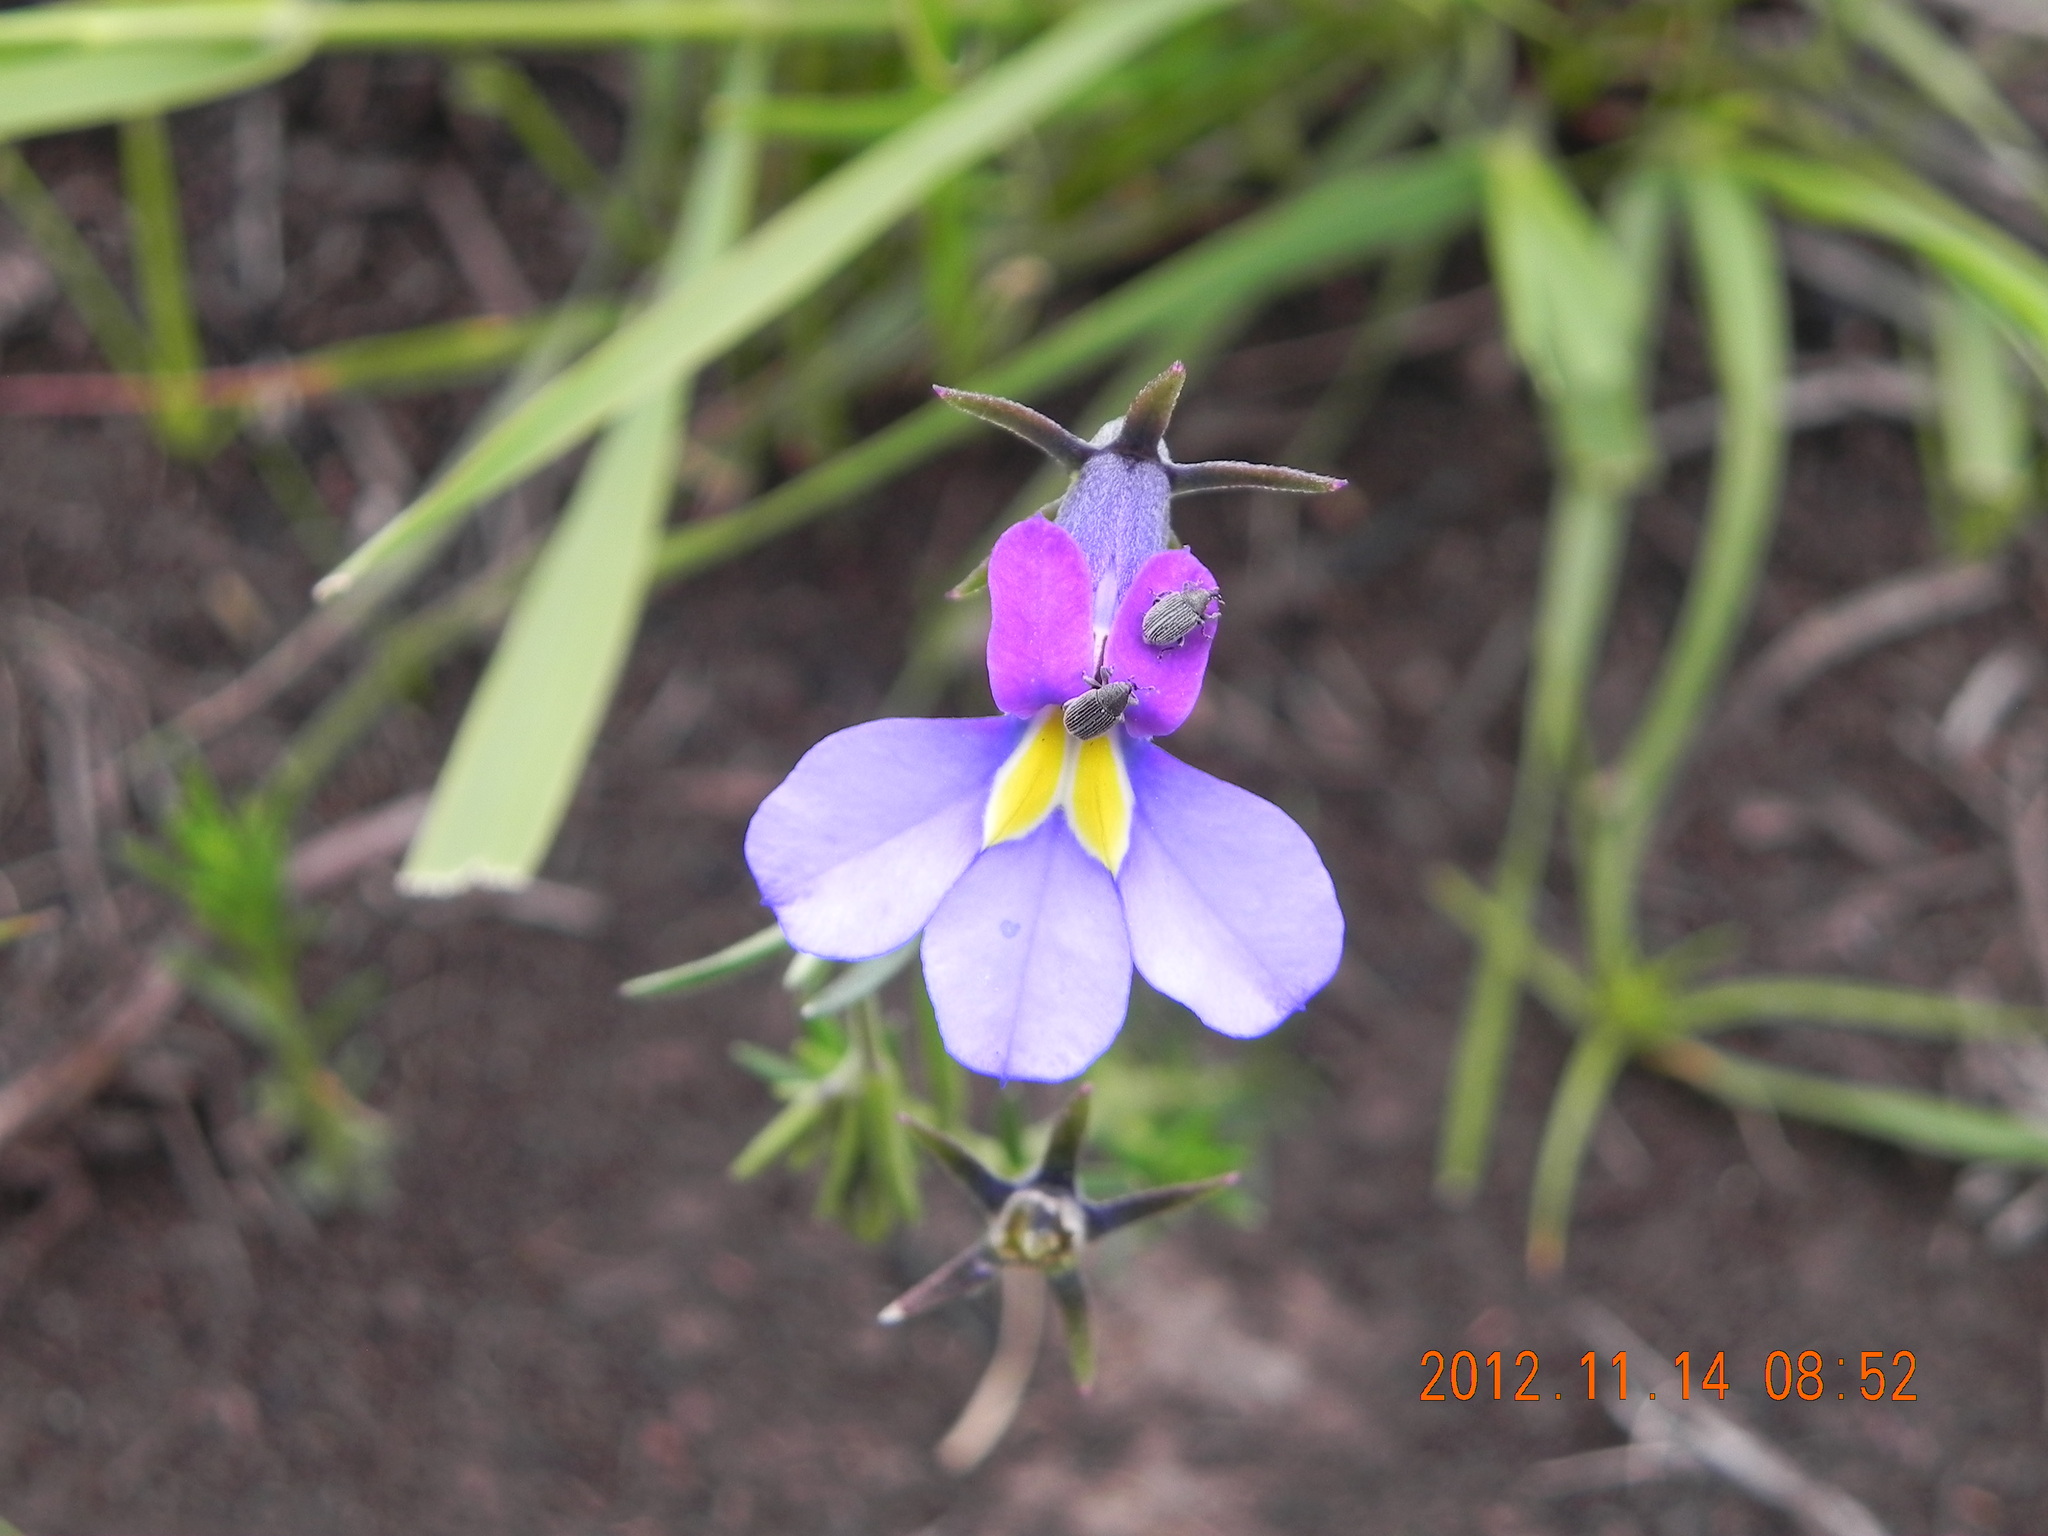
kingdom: Plantae
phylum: Tracheophyta
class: Magnoliopsida
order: Asterales
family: Campanulaceae
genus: Monopsis
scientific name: Monopsis decipiens
